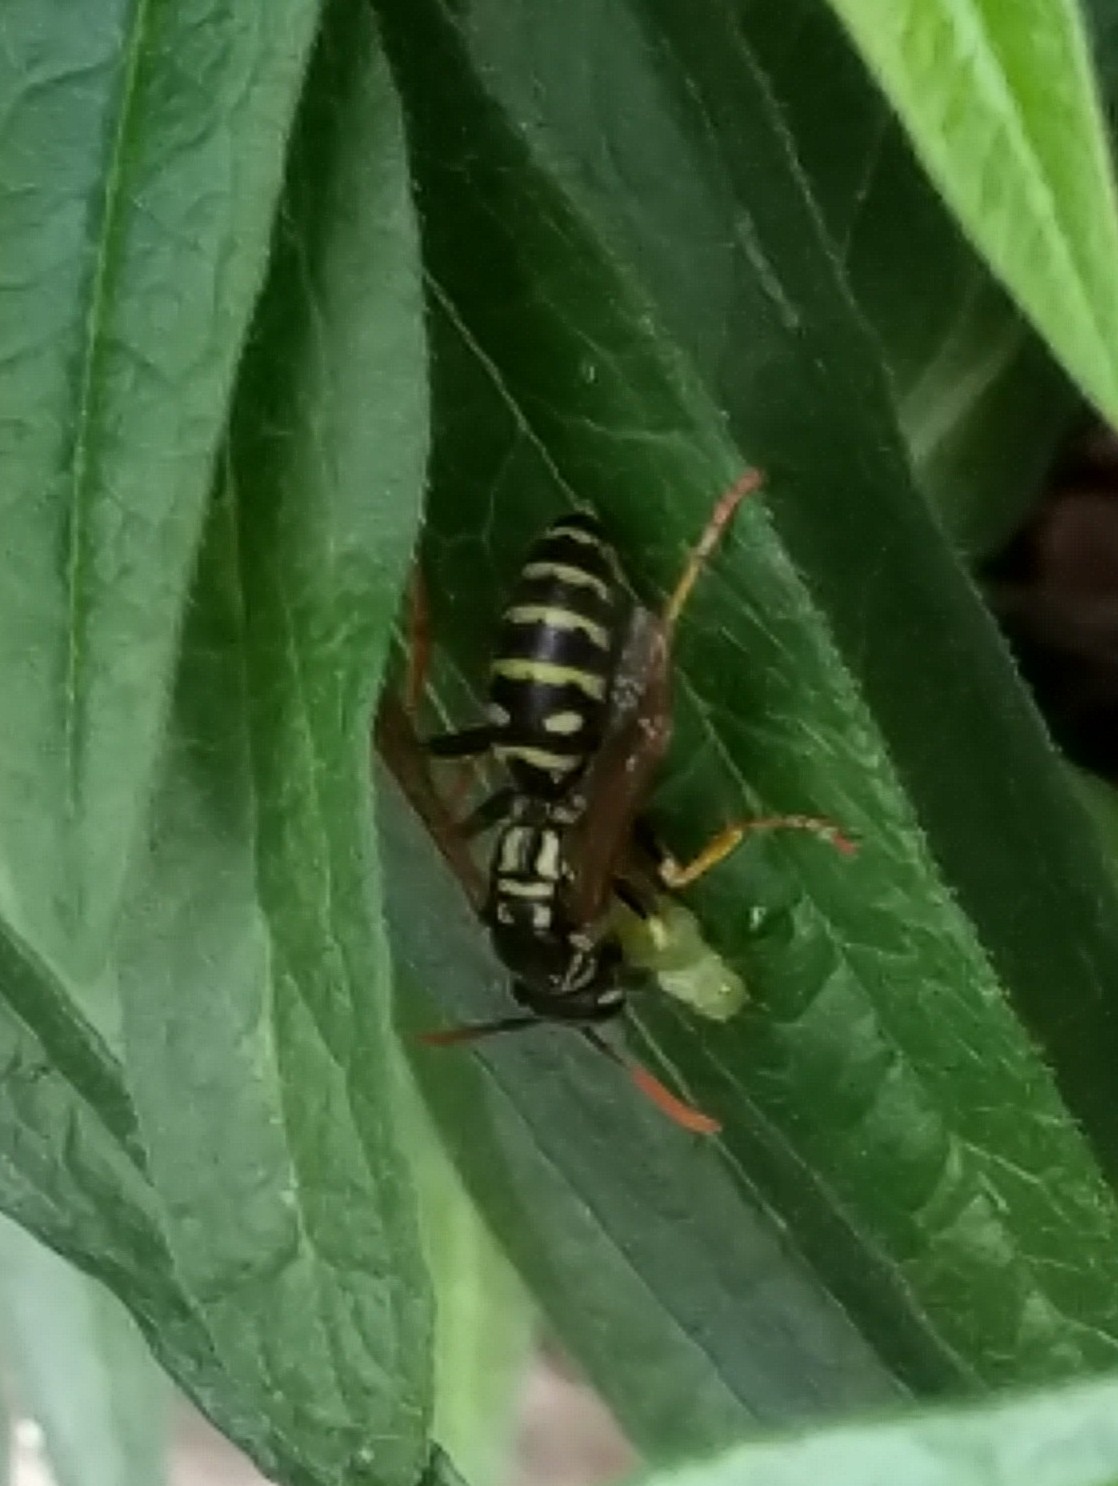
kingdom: Animalia
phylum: Arthropoda
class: Insecta
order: Hymenoptera
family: Eumenidae
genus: Polistes
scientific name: Polistes dominula
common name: Paper wasp
